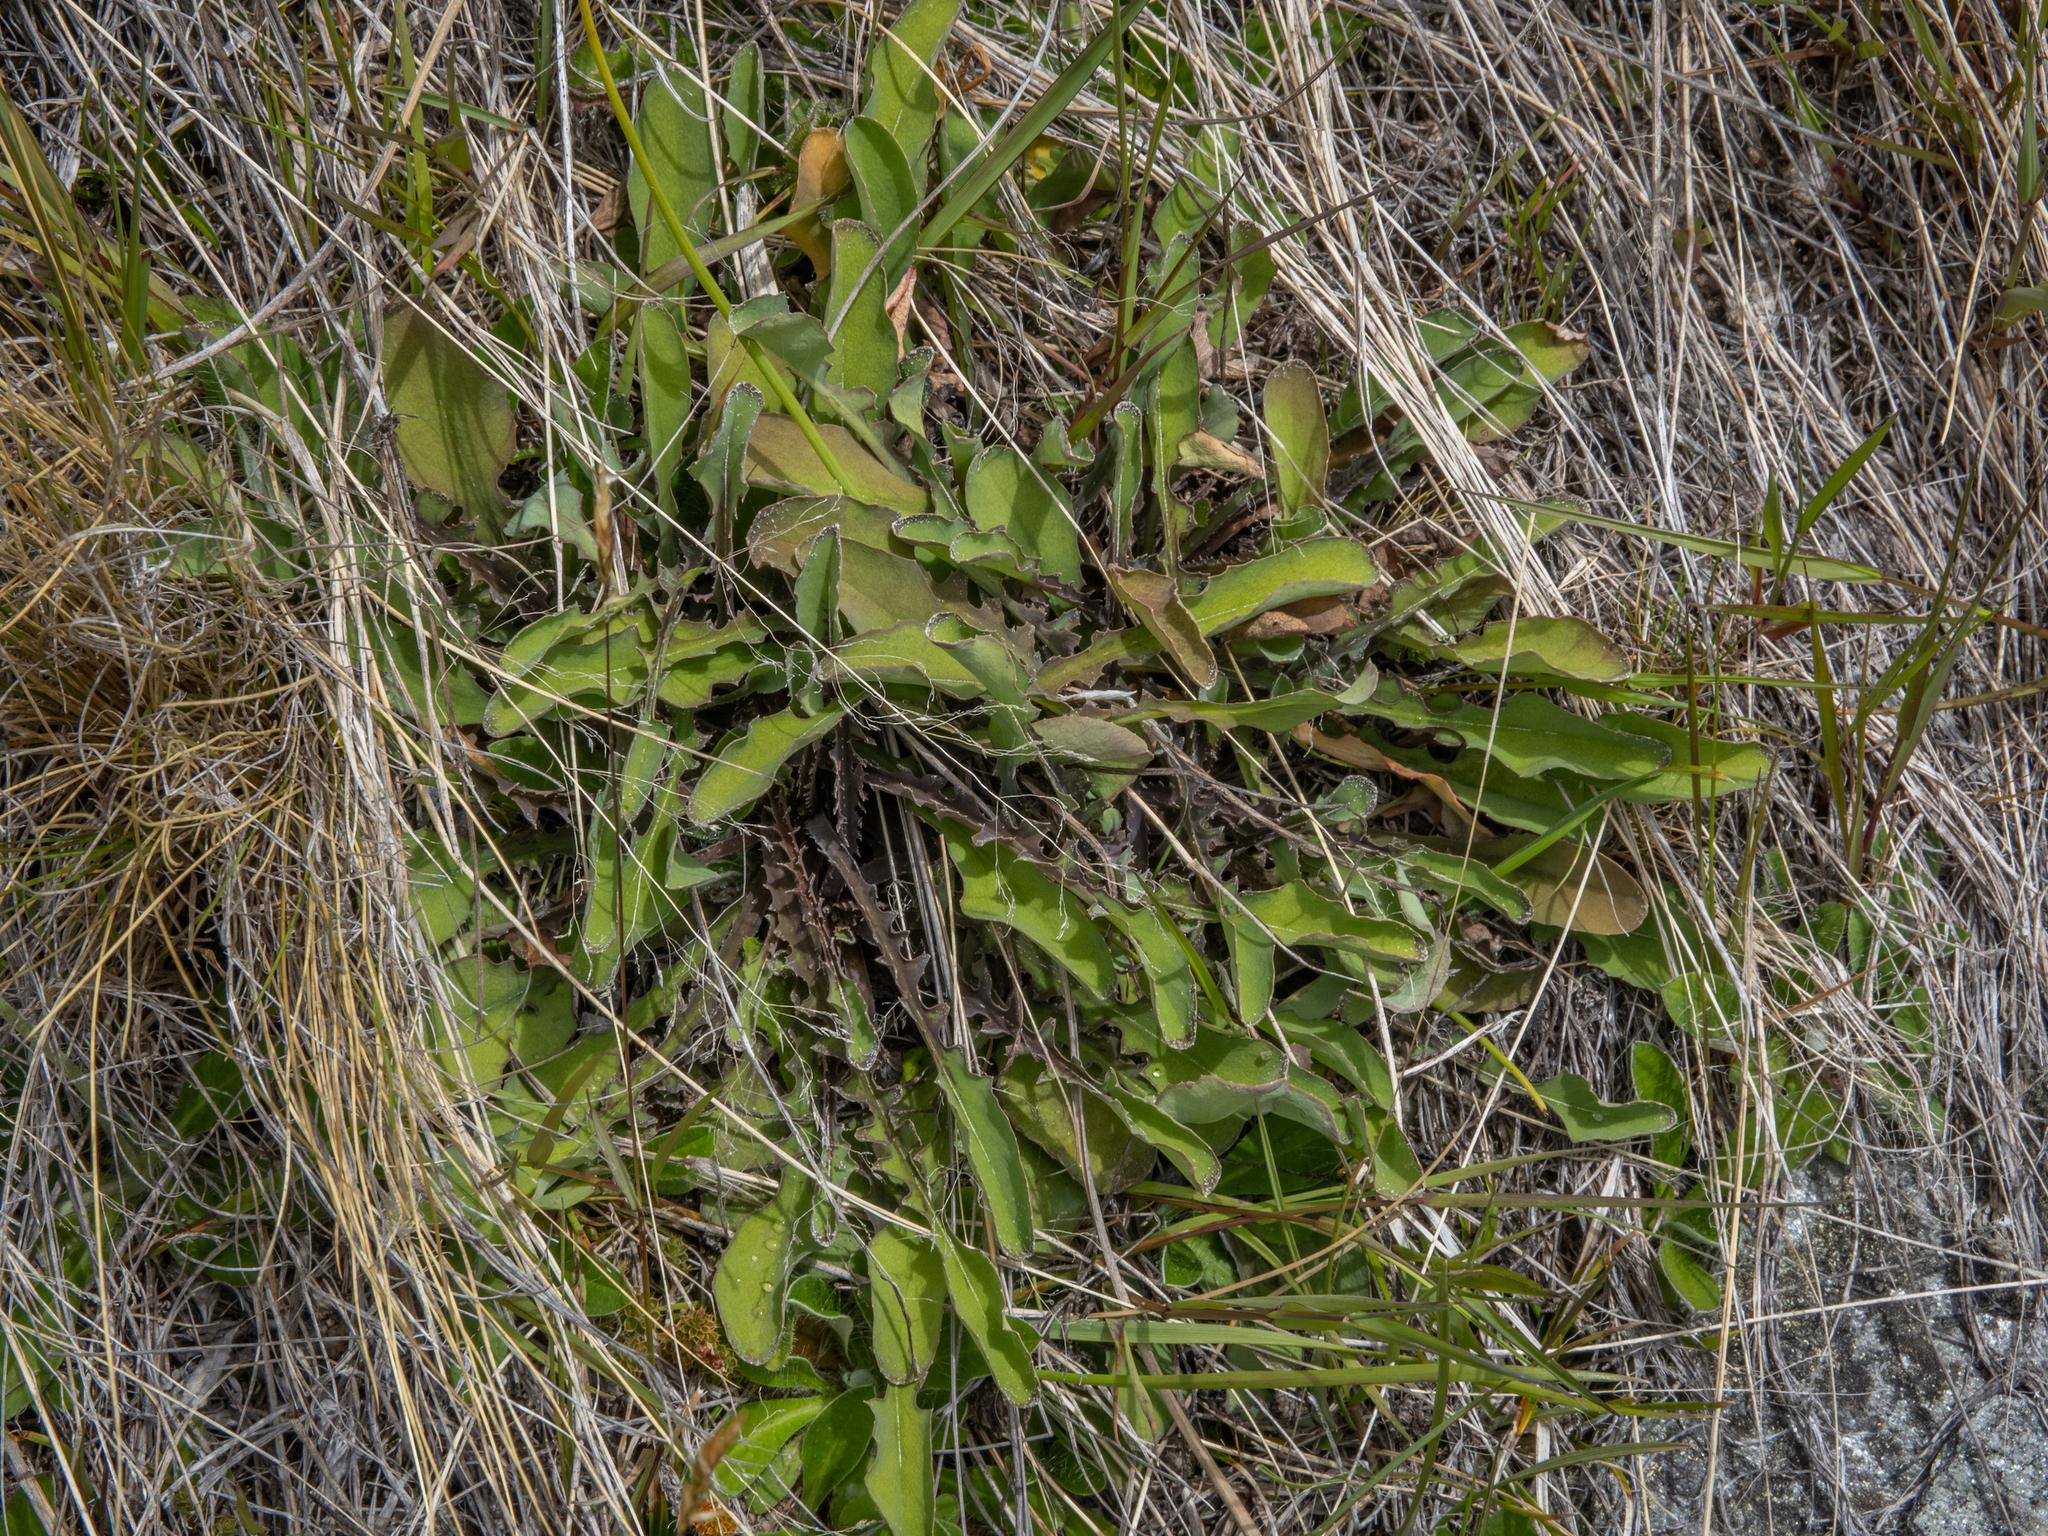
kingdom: Plantae
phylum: Tracheophyta
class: Magnoliopsida
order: Asterales
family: Asteraceae
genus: Sonchus
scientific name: Sonchus novae-zelandiae
